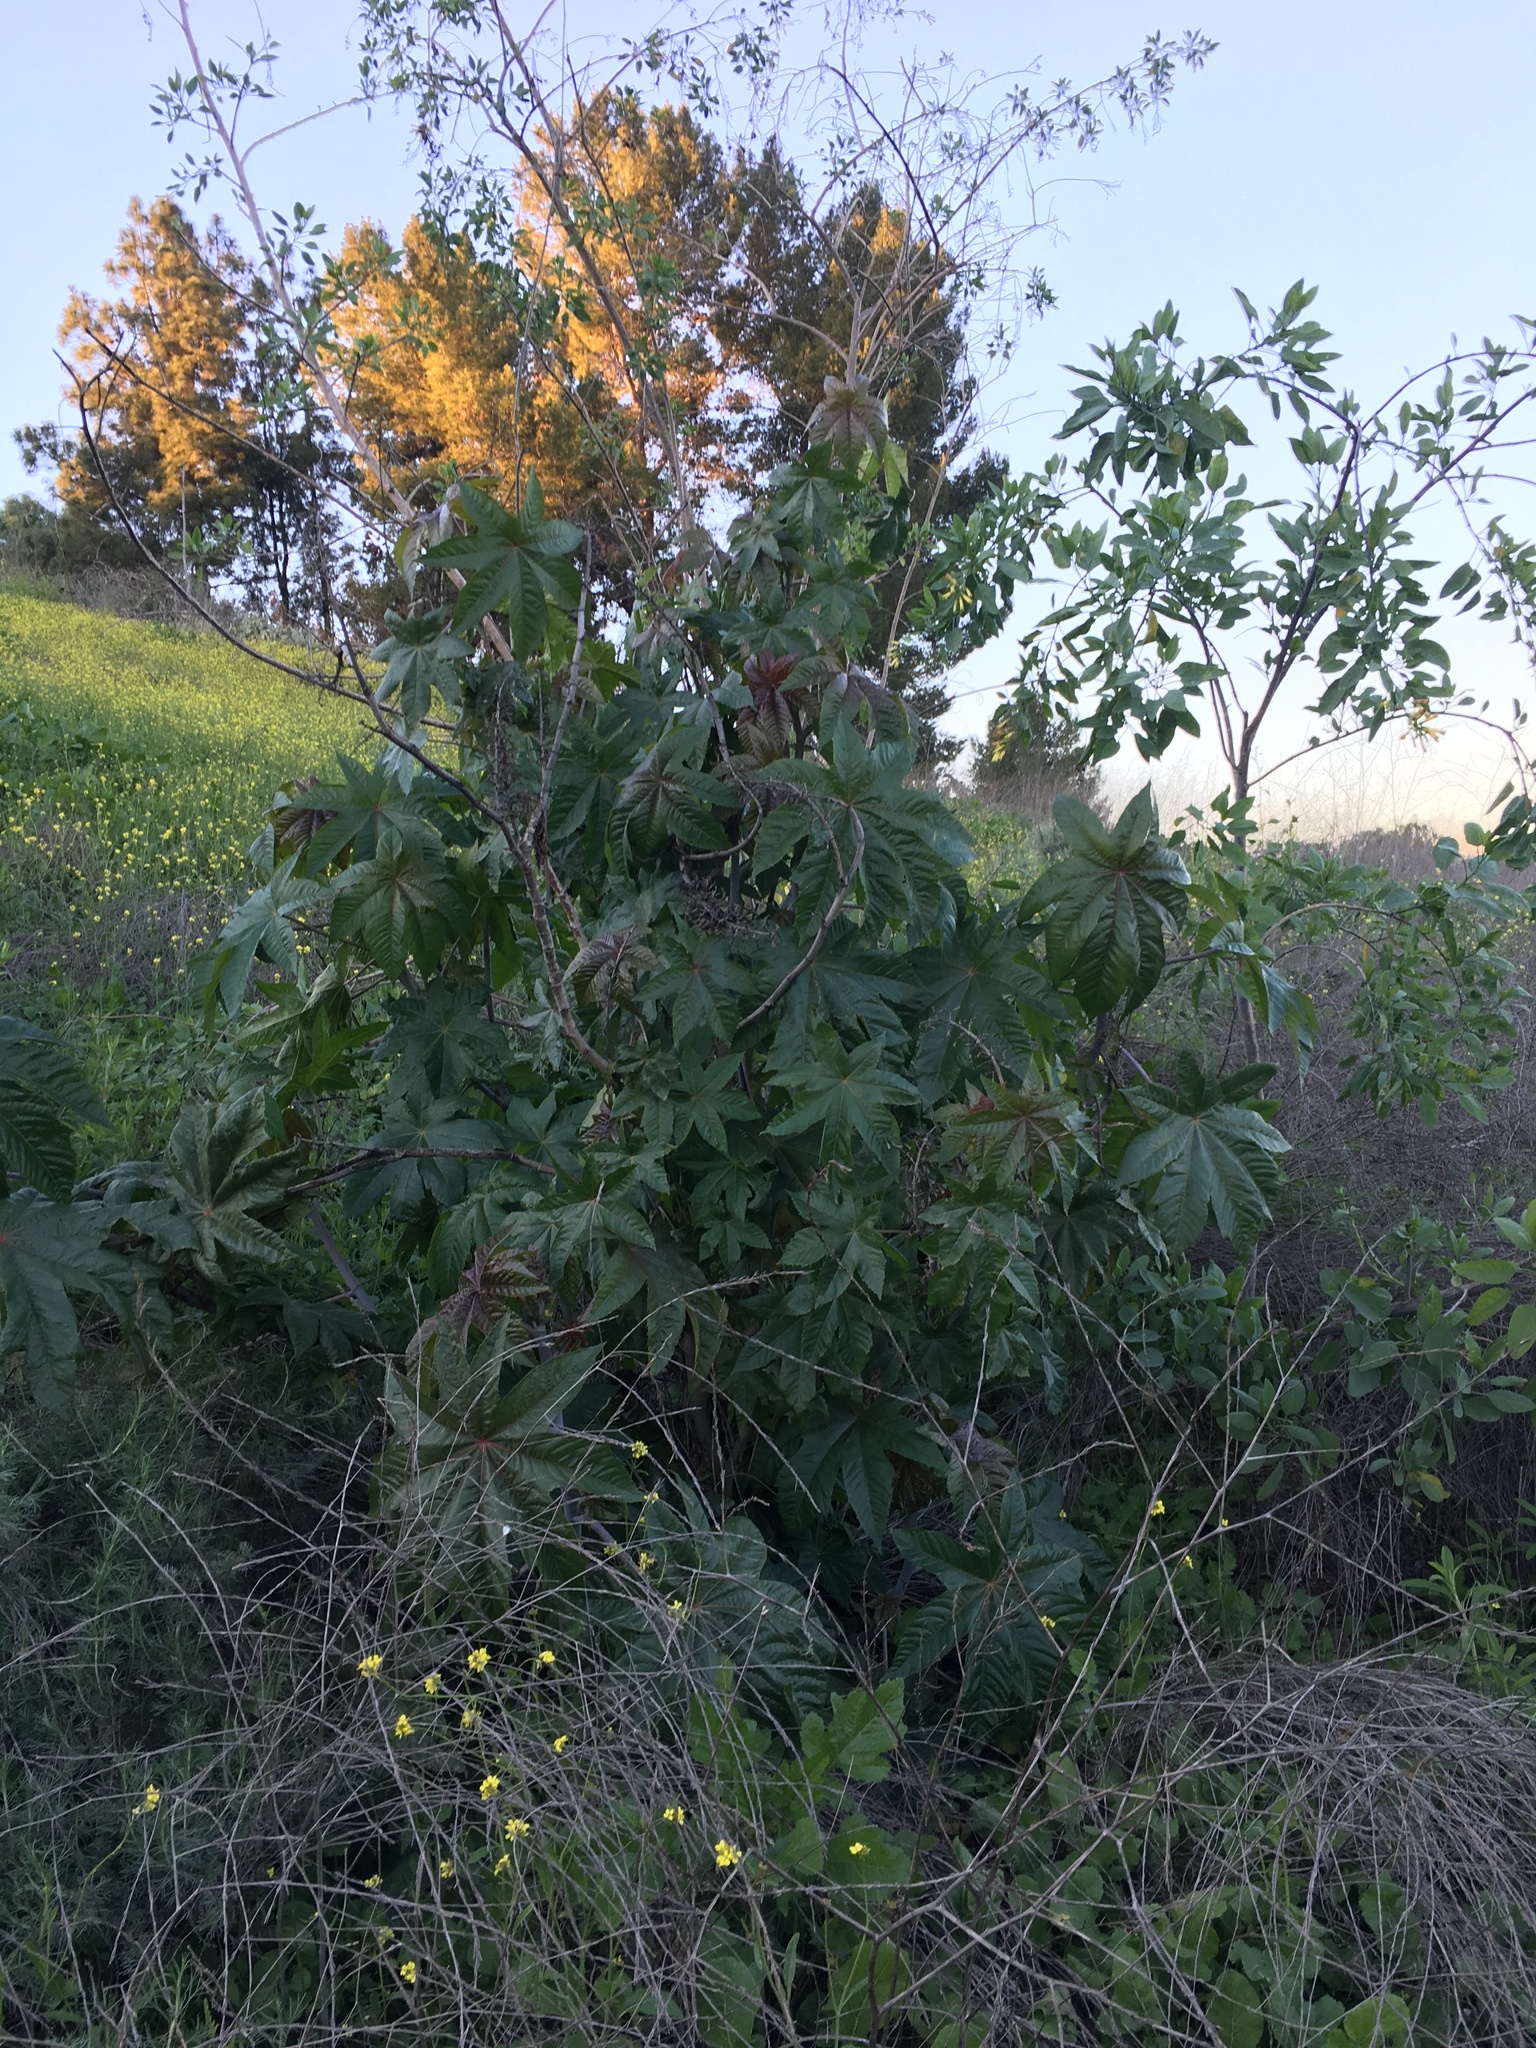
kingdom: Plantae
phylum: Tracheophyta
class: Magnoliopsida
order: Malpighiales
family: Euphorbiaceae
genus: Ricinus
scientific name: Ricinus communis
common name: Castor-oil-plant
